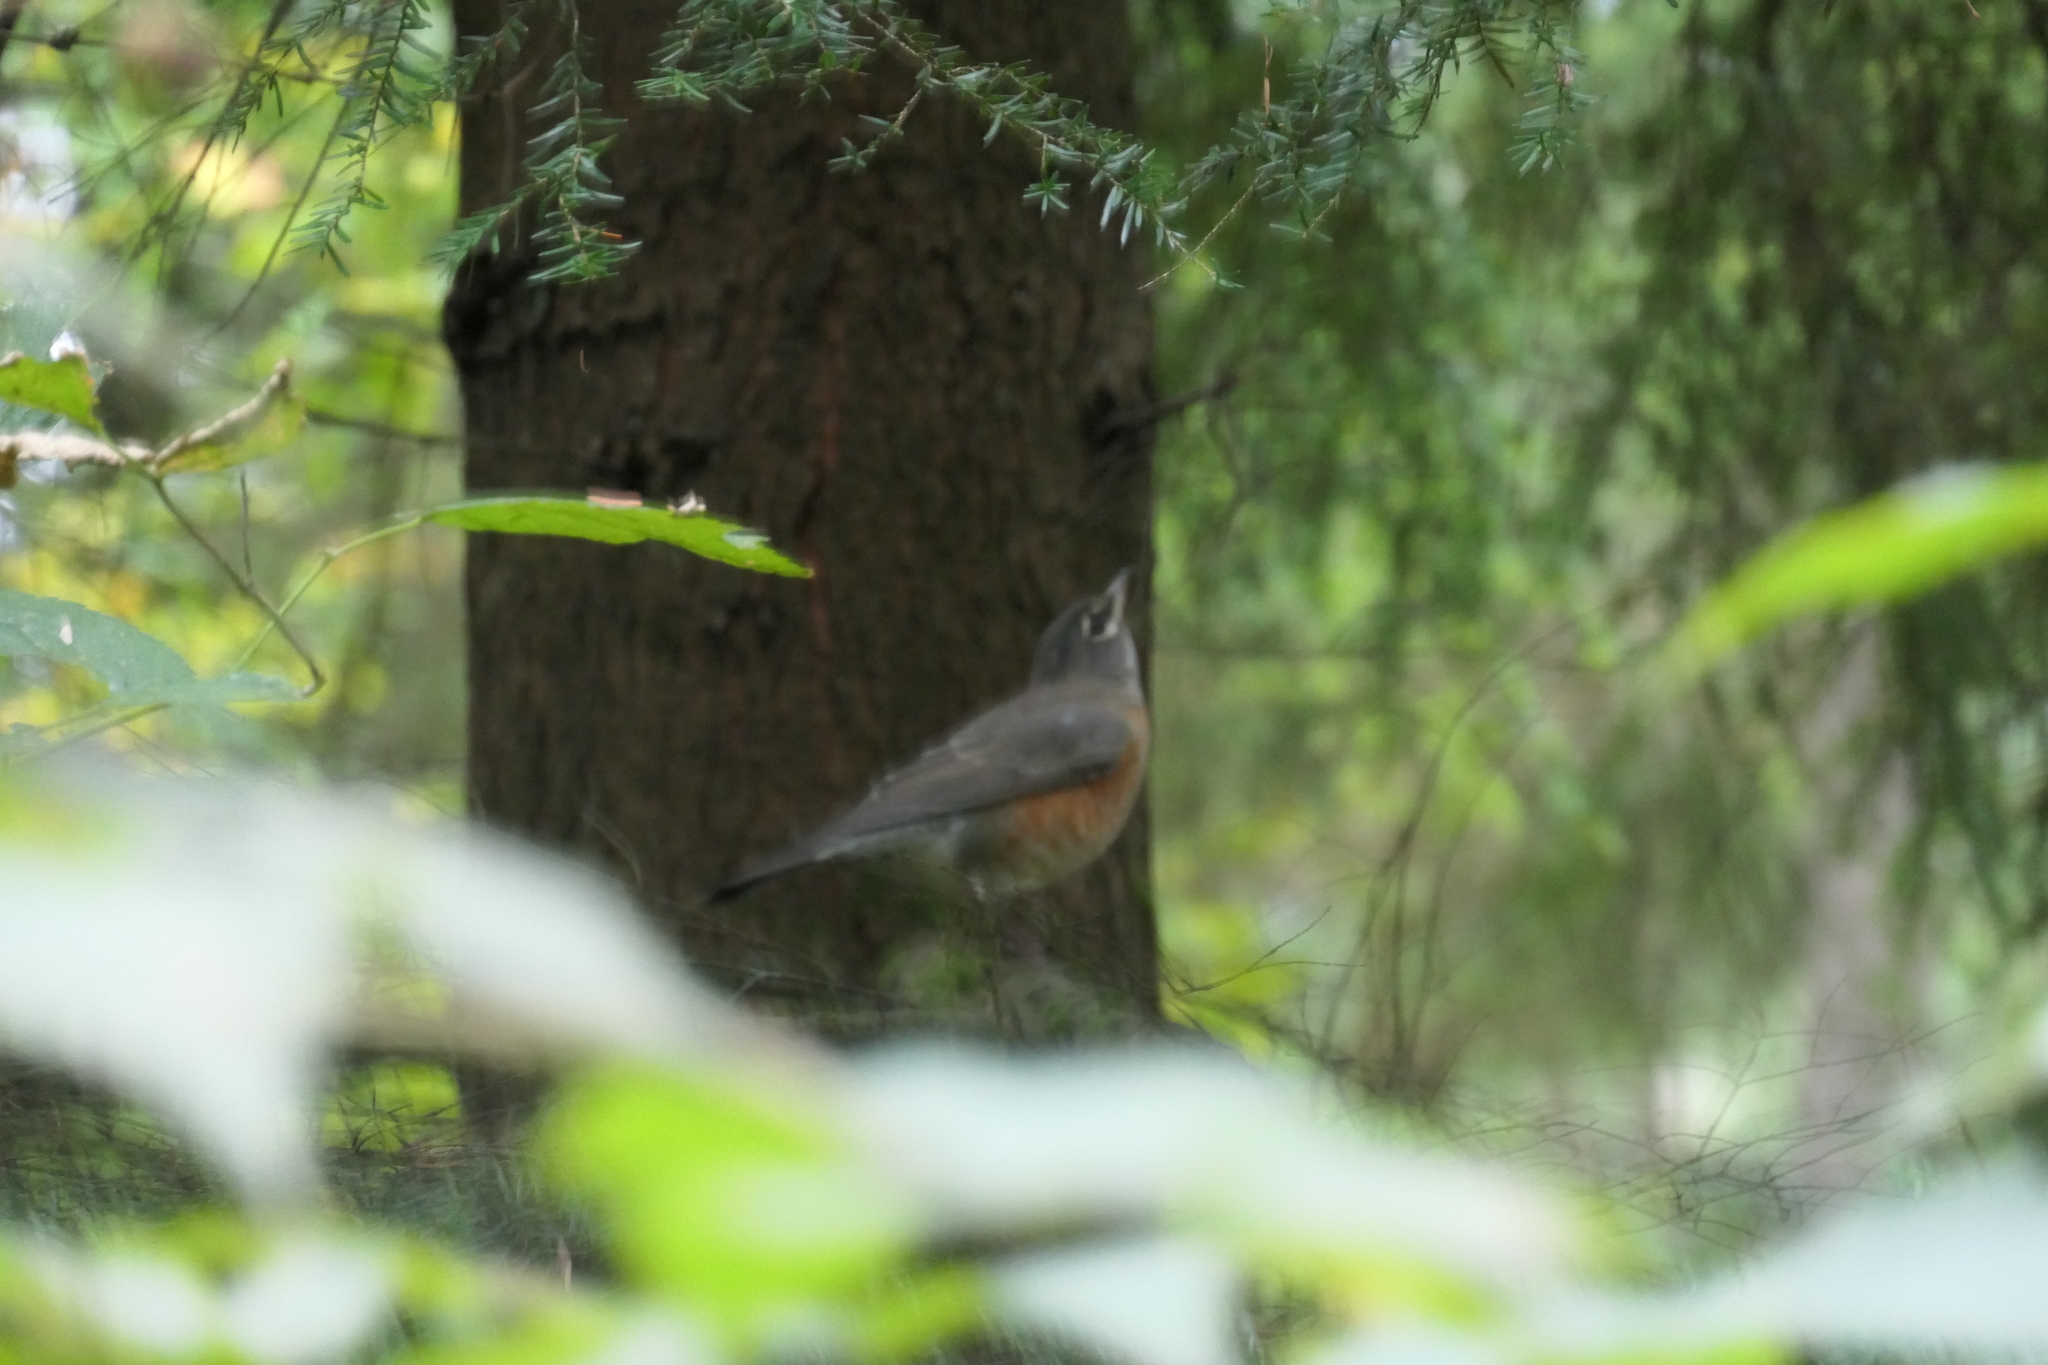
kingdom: Animalia
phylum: Chordata
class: Aves
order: Passeriformes
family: Turdidae
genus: Turdus
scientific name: Turdus migratorius
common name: American robin
